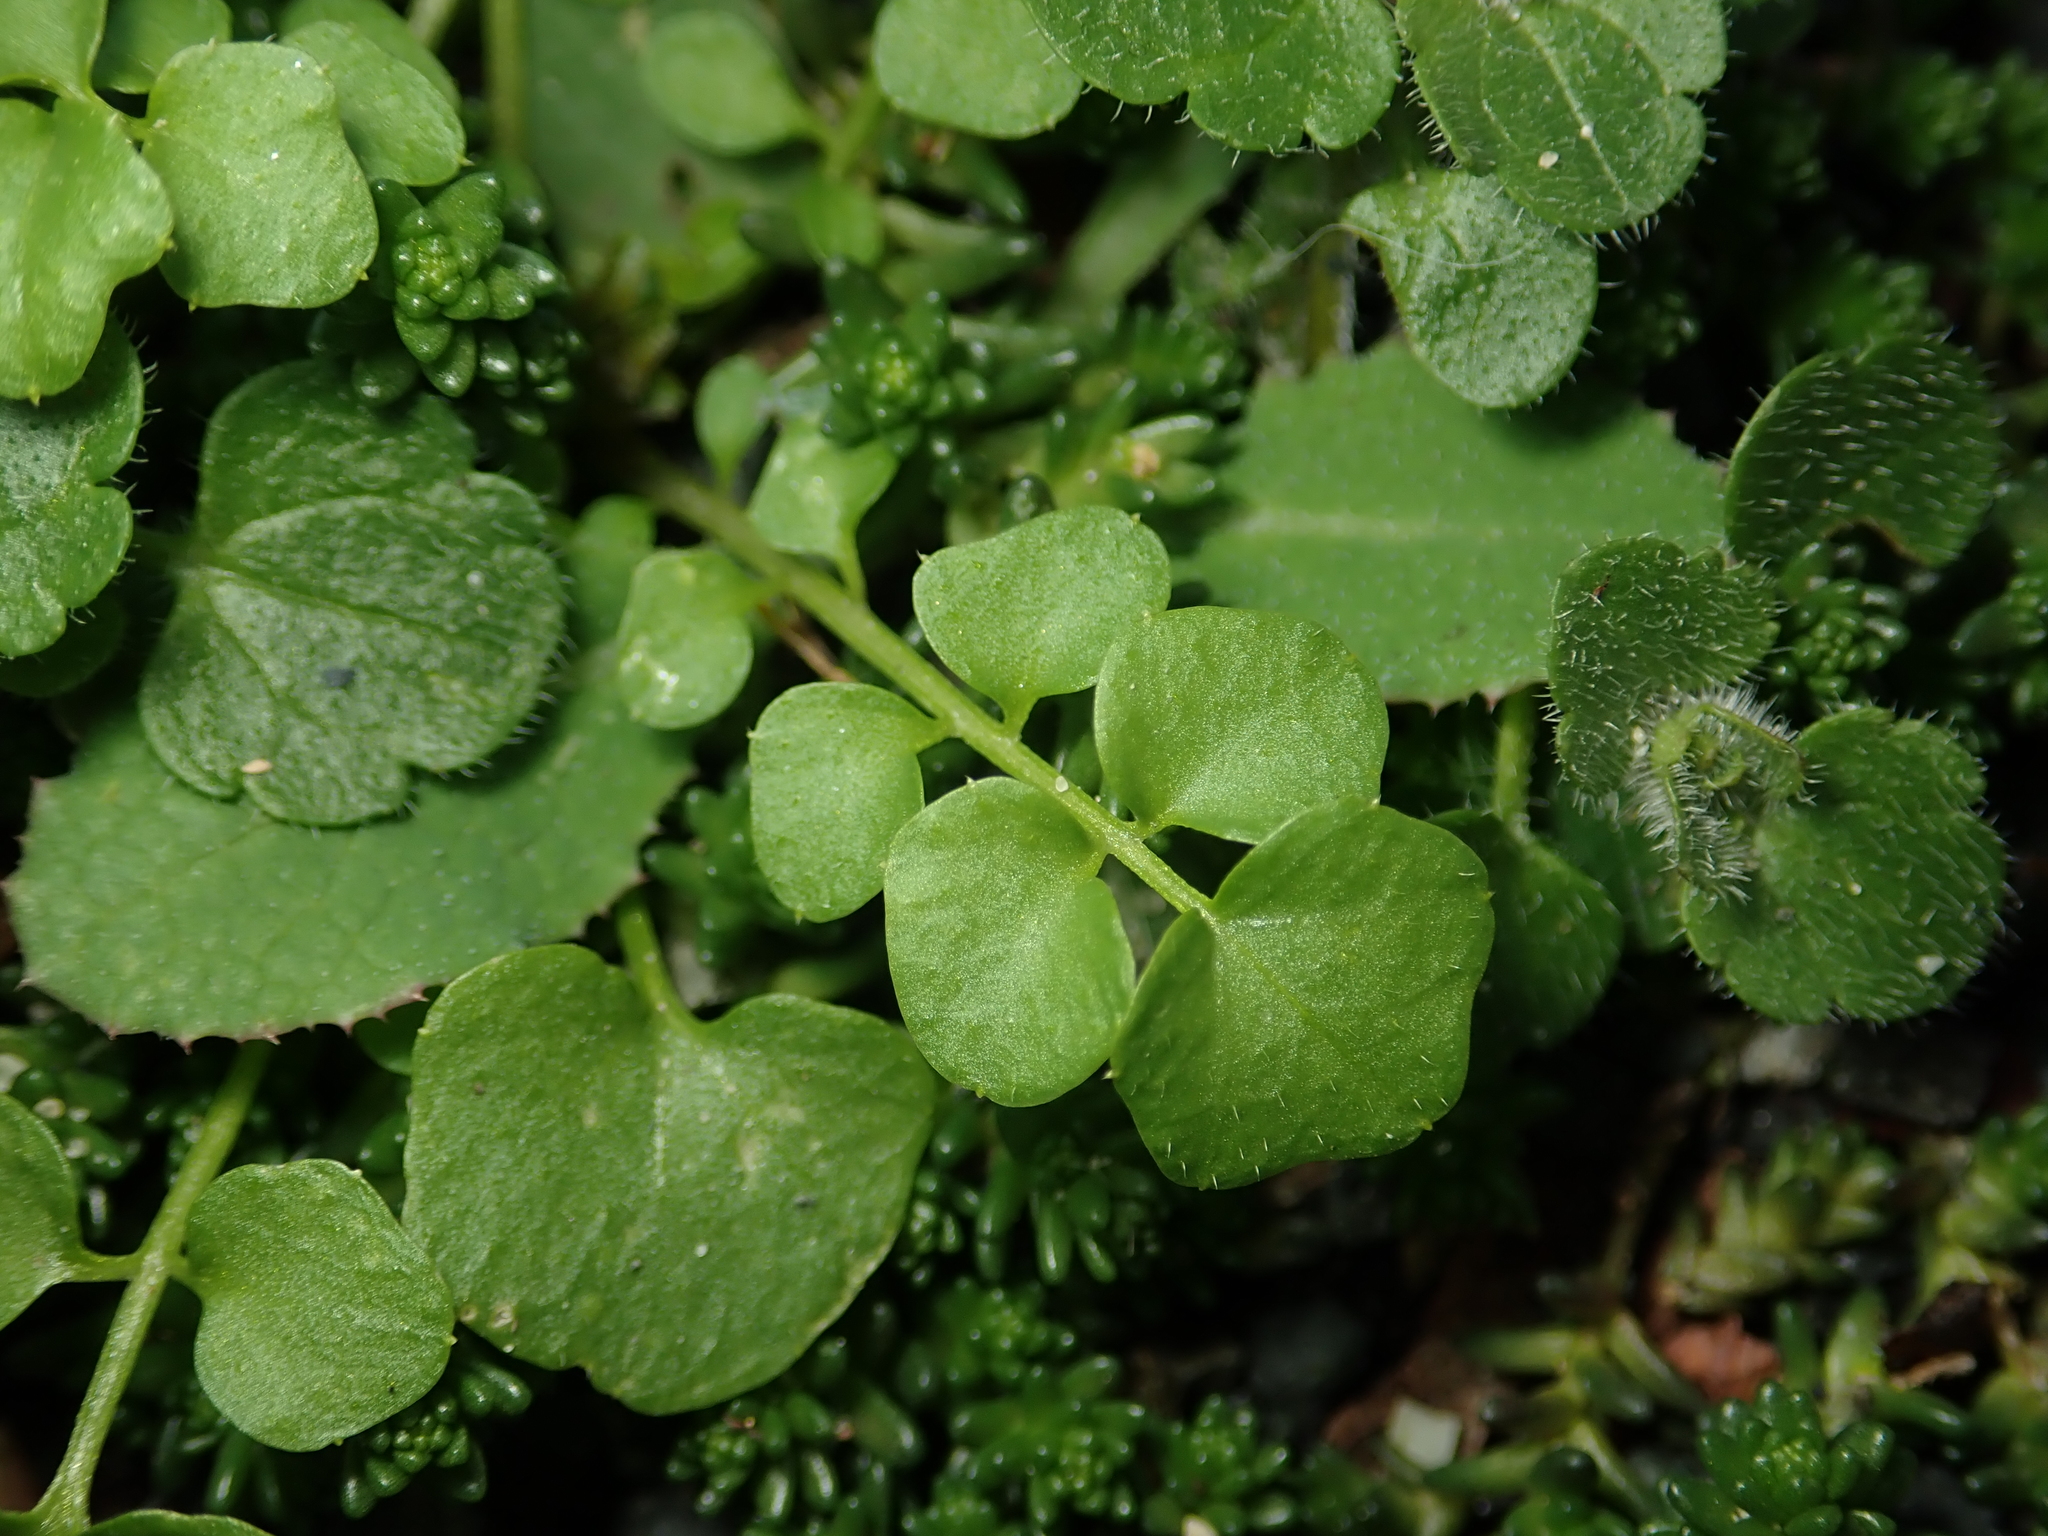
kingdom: Plantae
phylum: Tracheophyta
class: Magnoliopsida
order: Brassicales
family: Brassicaceae
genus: Cardamine
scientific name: Cardamine hirsuta
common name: Hairy bittercress
